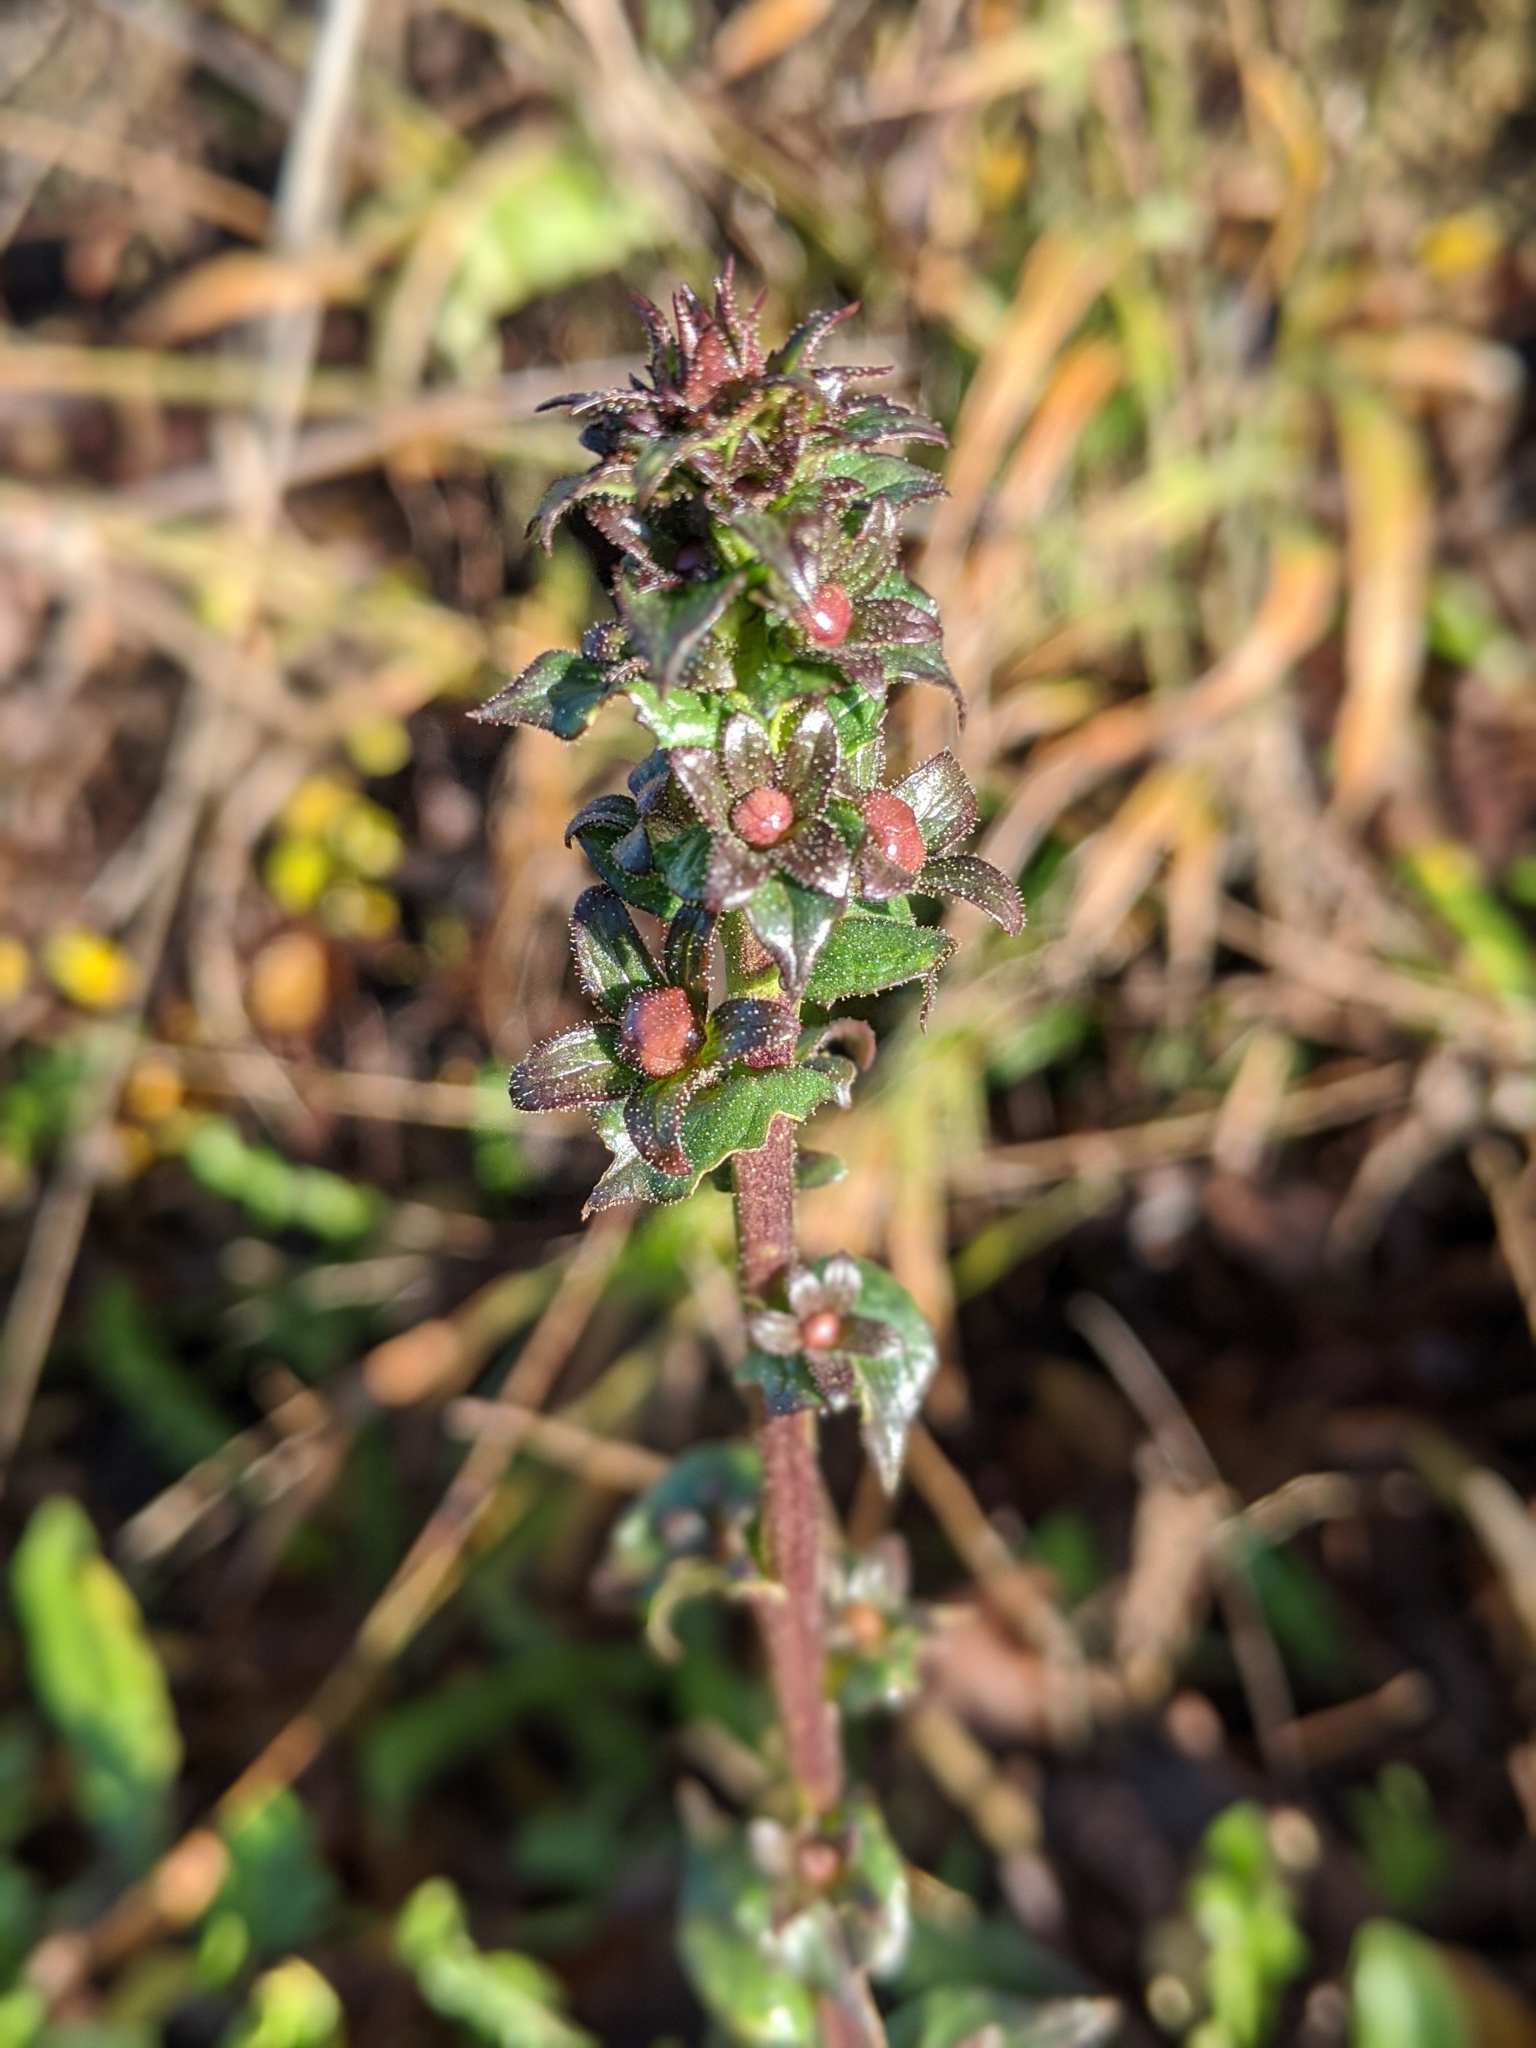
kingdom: Plantae
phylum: Tracheophyta
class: Magnoliopsida
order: Asterales
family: Campanulaceae
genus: Campanula
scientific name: Campanula glomerata
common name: Clustered bellflower
